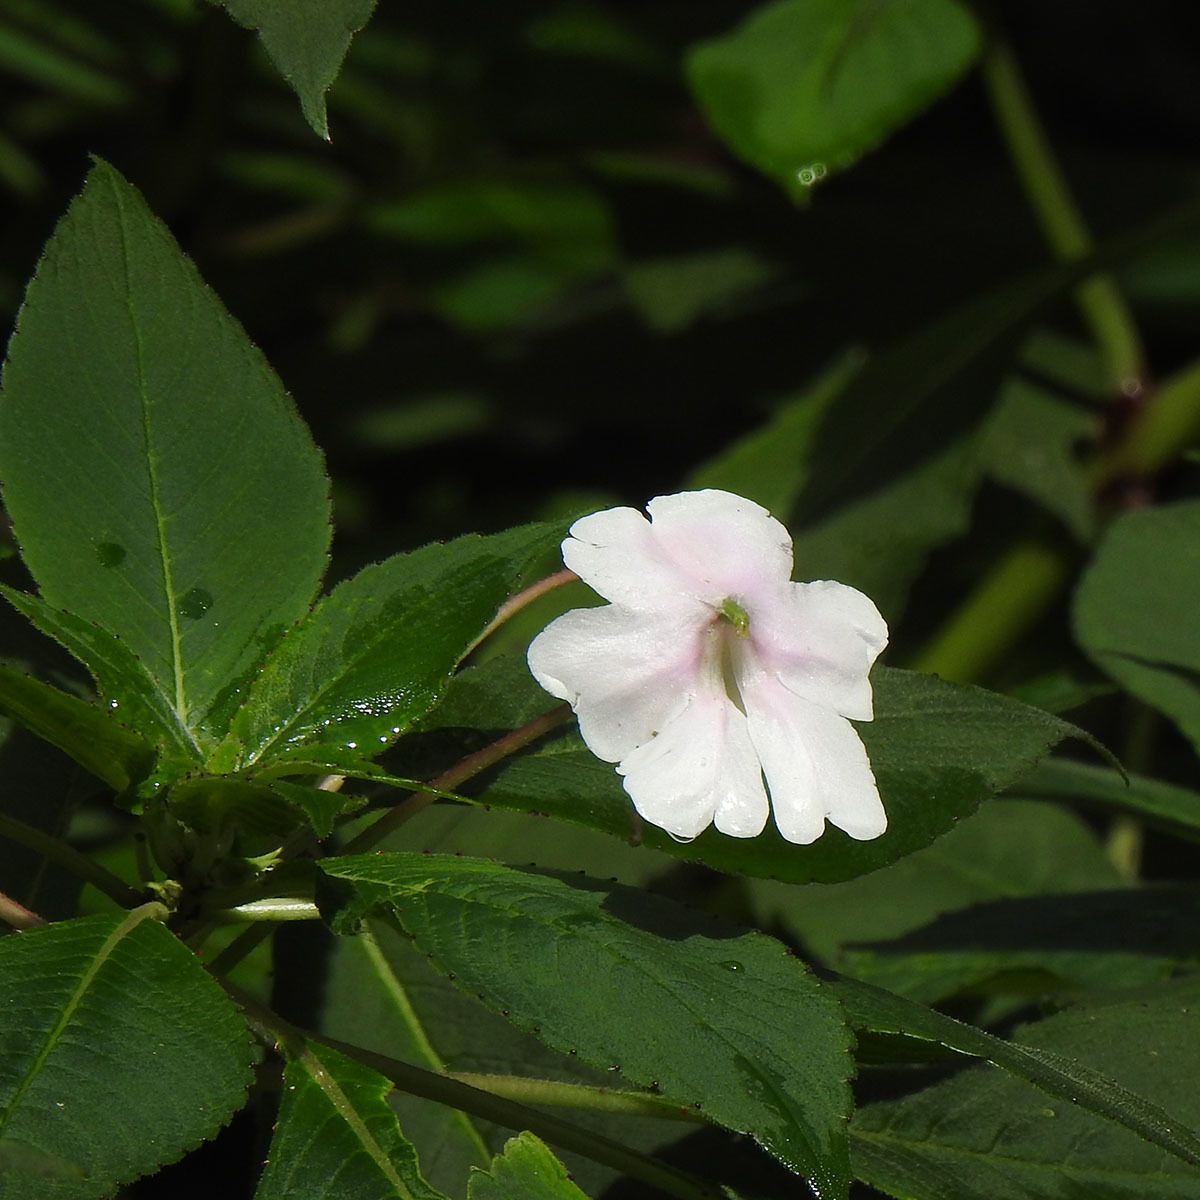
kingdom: Plantae
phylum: Tracheophyta
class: Magnoliopsida
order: Ericales
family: Balsaminaceae
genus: Impatiens
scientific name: Impatiens henslowiana
